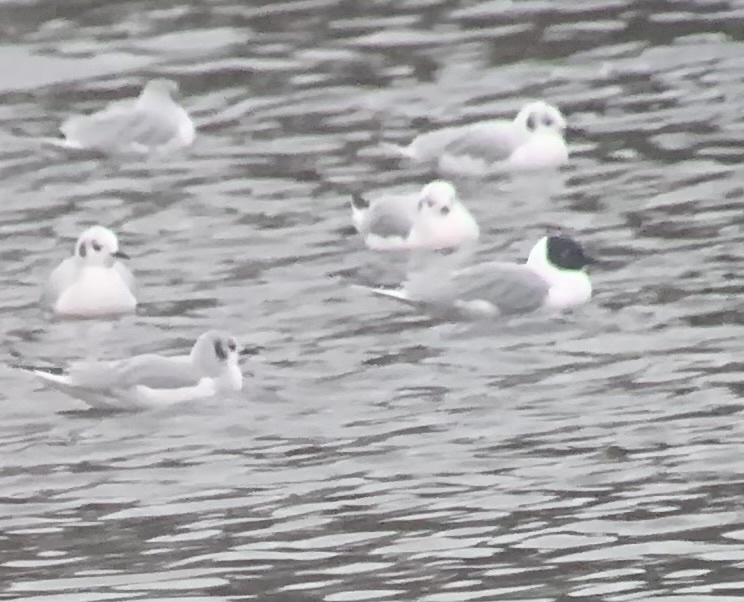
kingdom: Animalia
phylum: Chordata
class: Aves
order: Charadriiformes
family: Laridae
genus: Chroicocephalus
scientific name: Chroicocephalus philadelphia
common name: Bonaparte's gull
